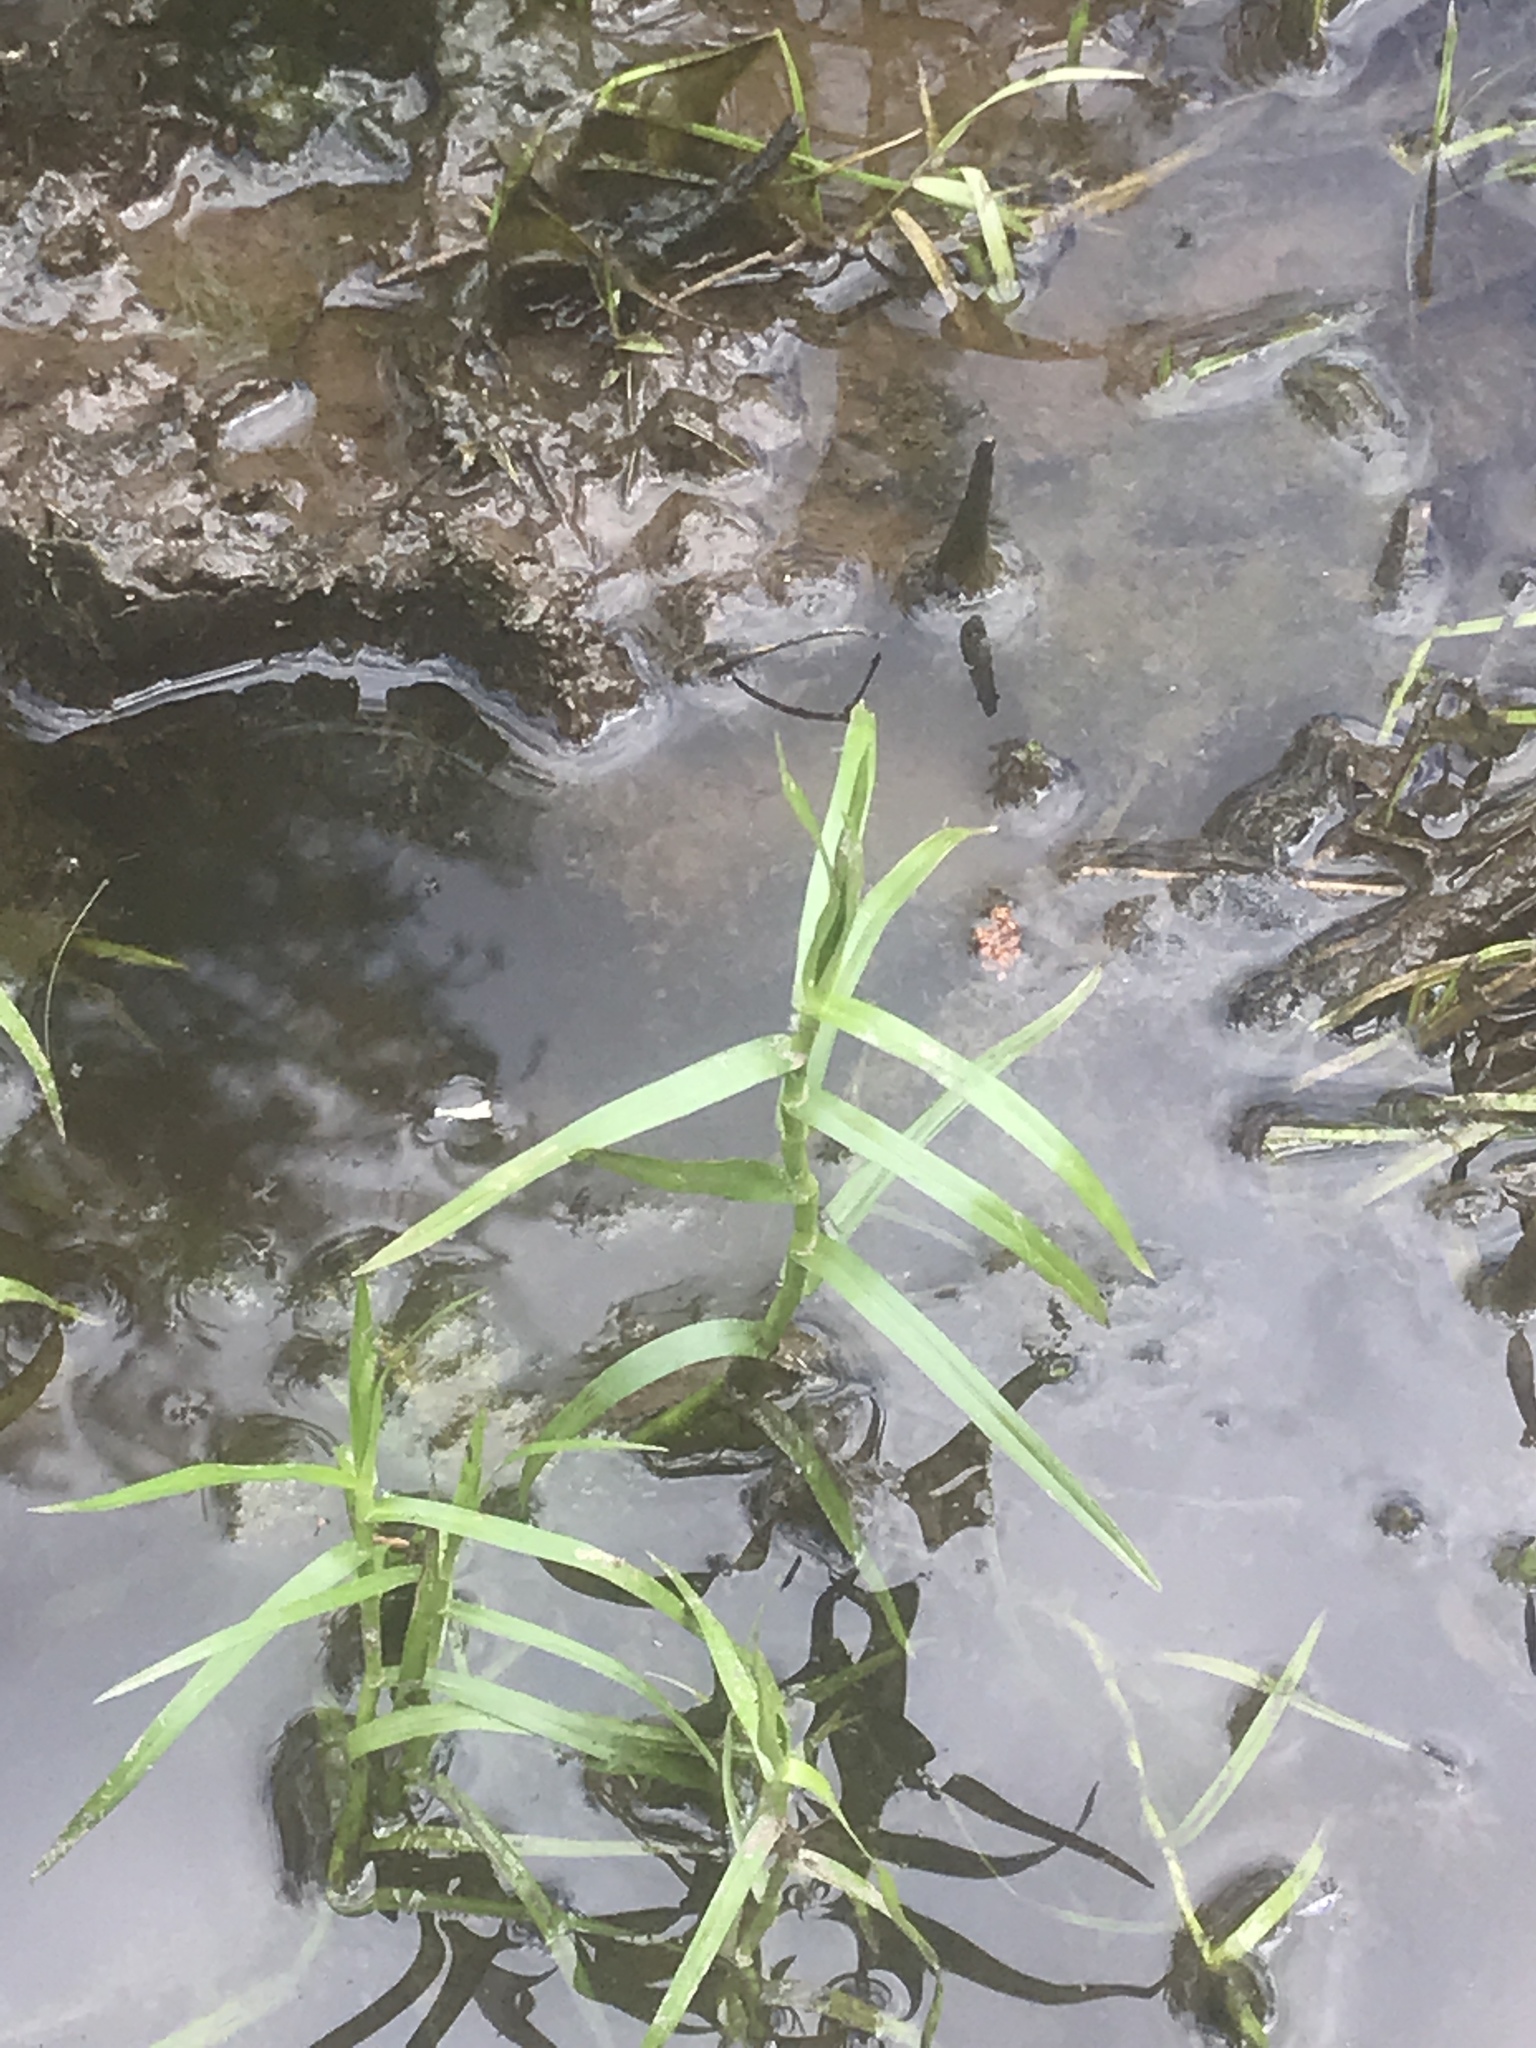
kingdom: Plantae
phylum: Tracheophyta
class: Liliopsida
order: Poales
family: Cyperaceae
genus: Dulichium
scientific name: Dulichium arundinaceum
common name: Three-way sedge
